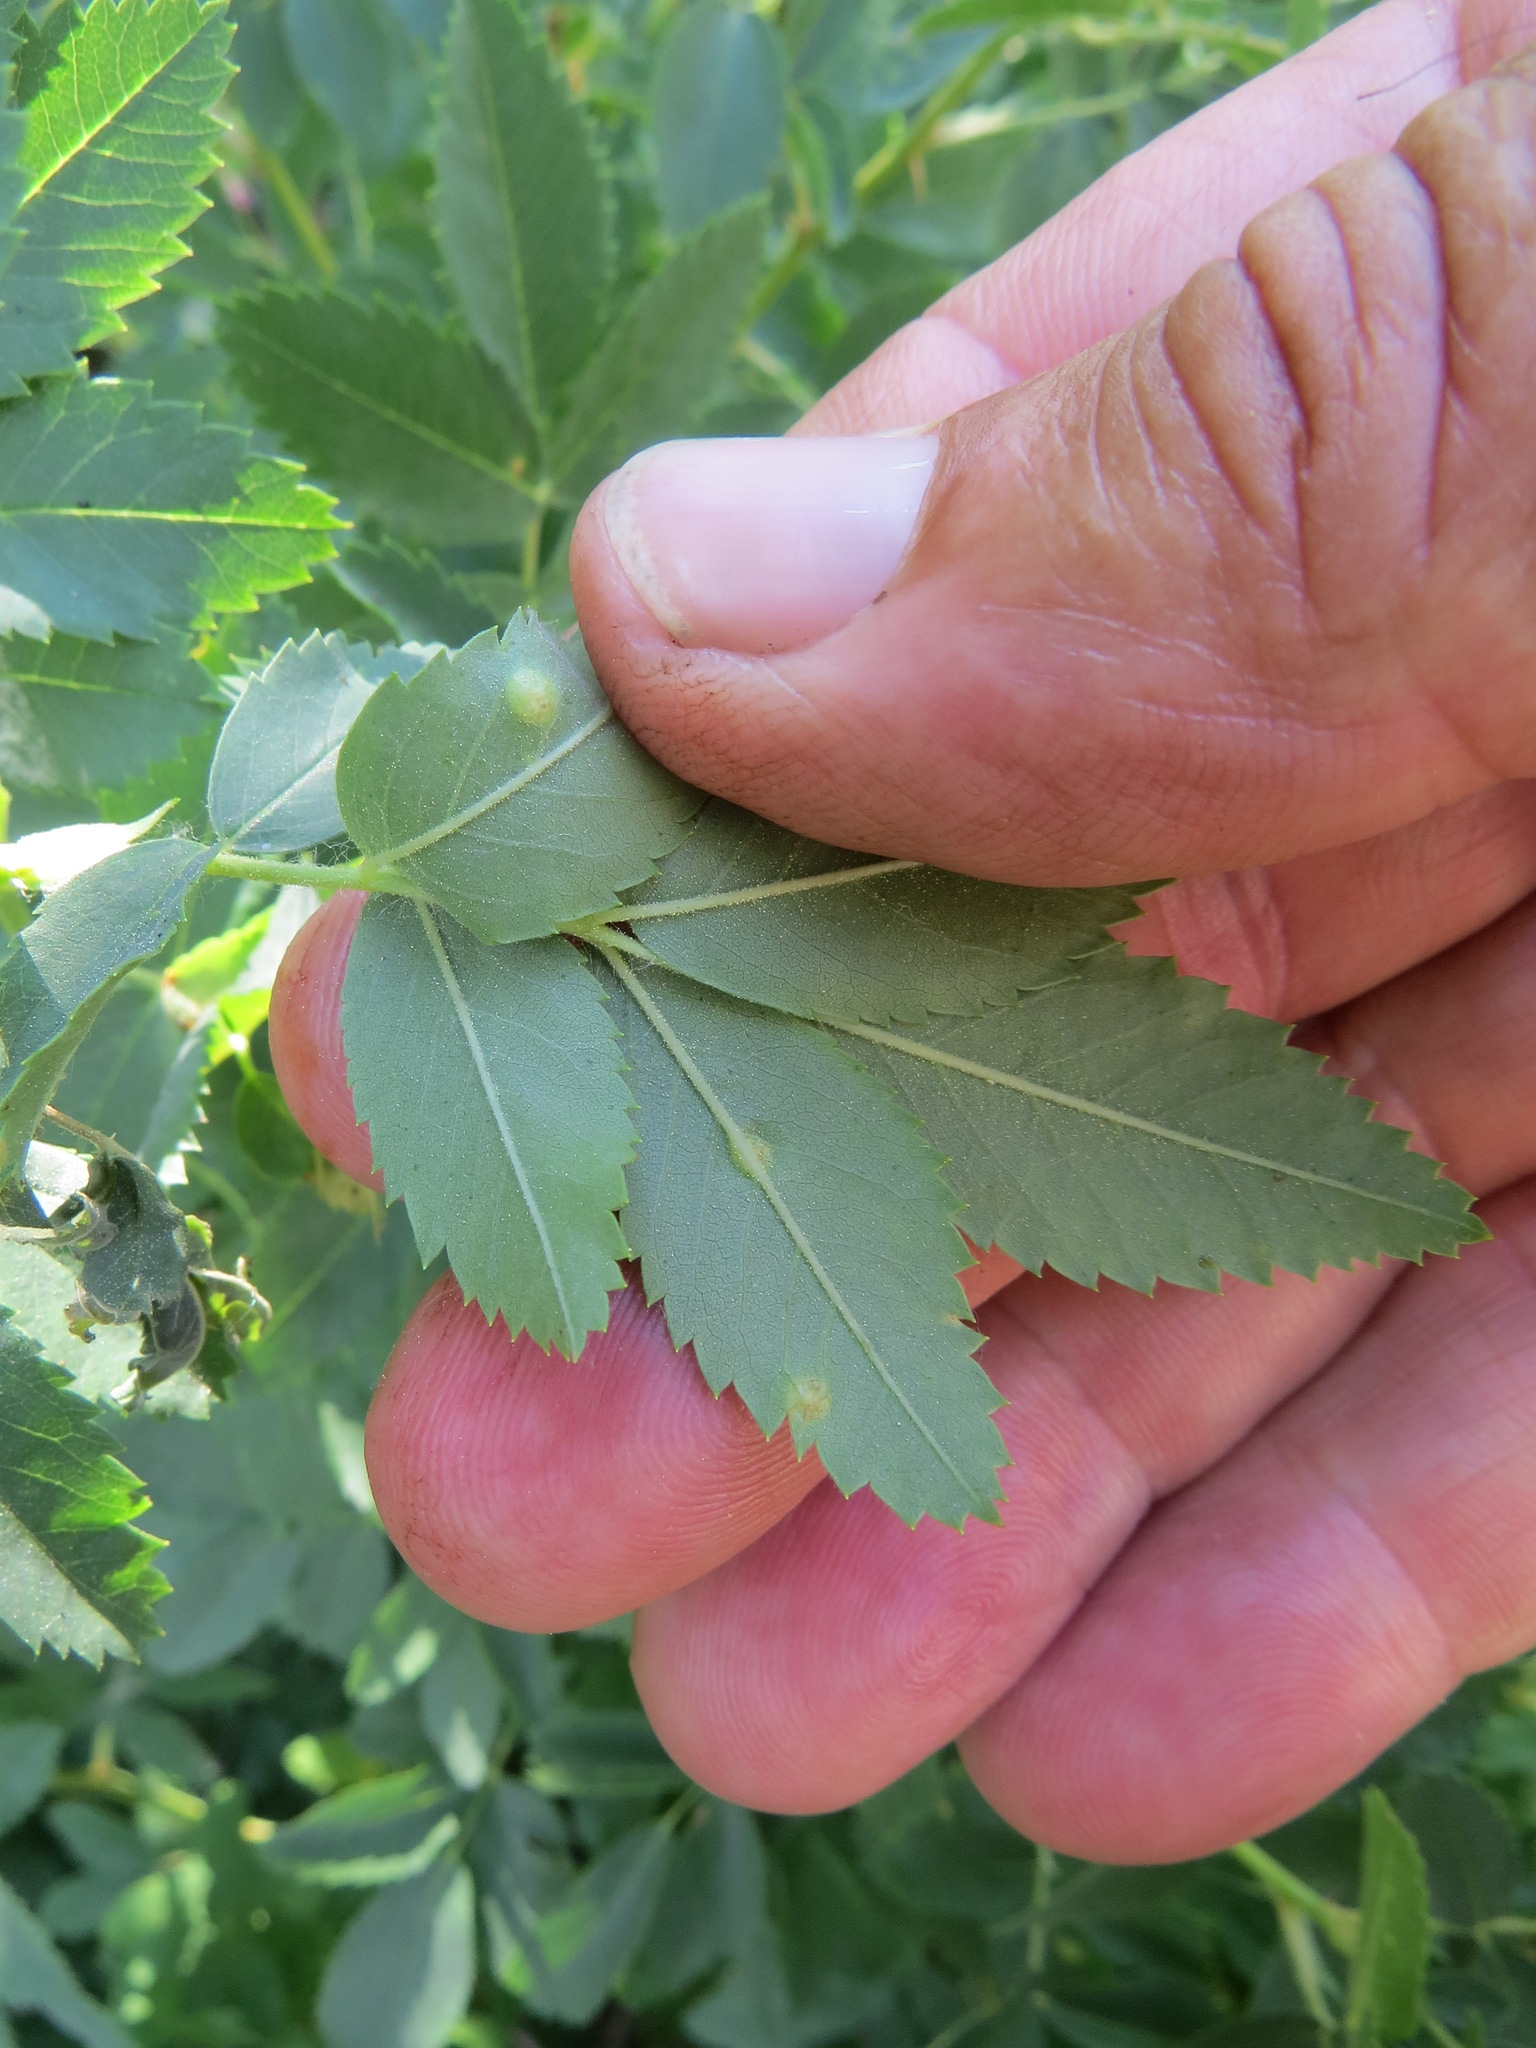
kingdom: Animalia
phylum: Arthropoda
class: Insecta
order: Hymenoptera
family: Cynipidae
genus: Diplolepis
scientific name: Diplolepis rosaefolii
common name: Blister-gall wasp
